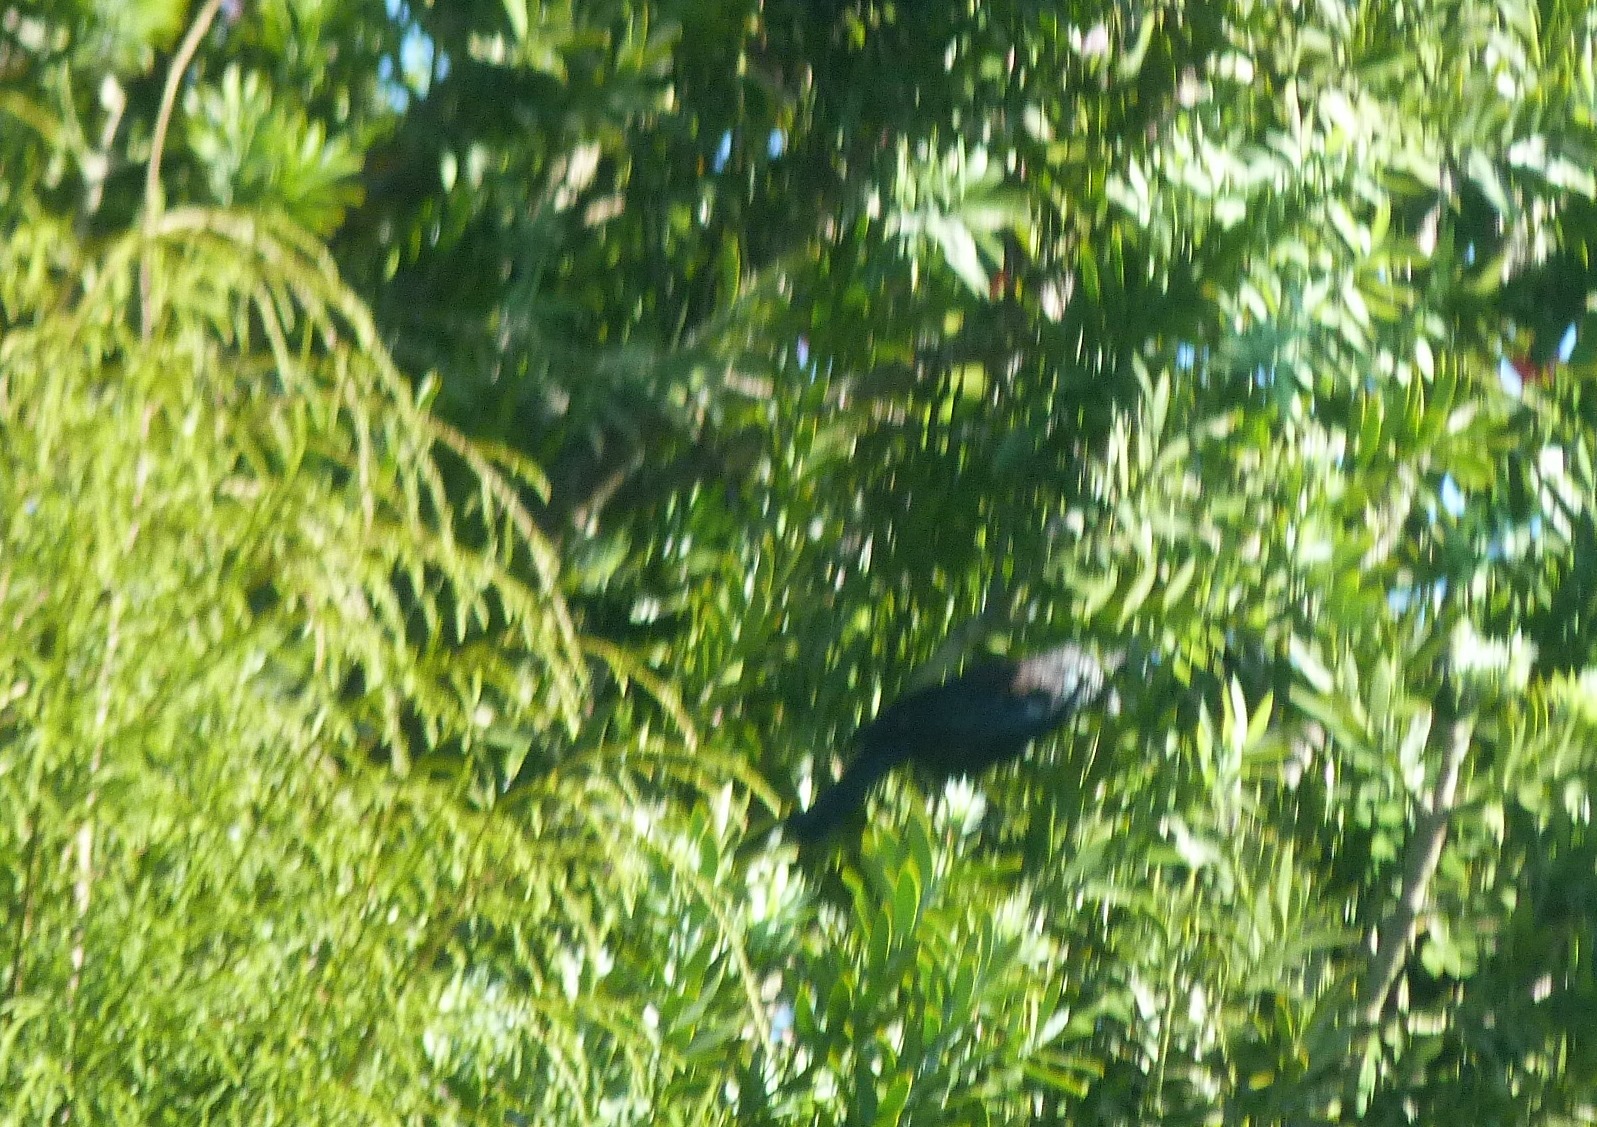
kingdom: Animalia
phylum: Chordata
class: Aves
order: Passeriformes
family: Meliphagidae
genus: Prosthemadera
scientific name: Prosthemadera novaeseelandiae
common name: Tui
